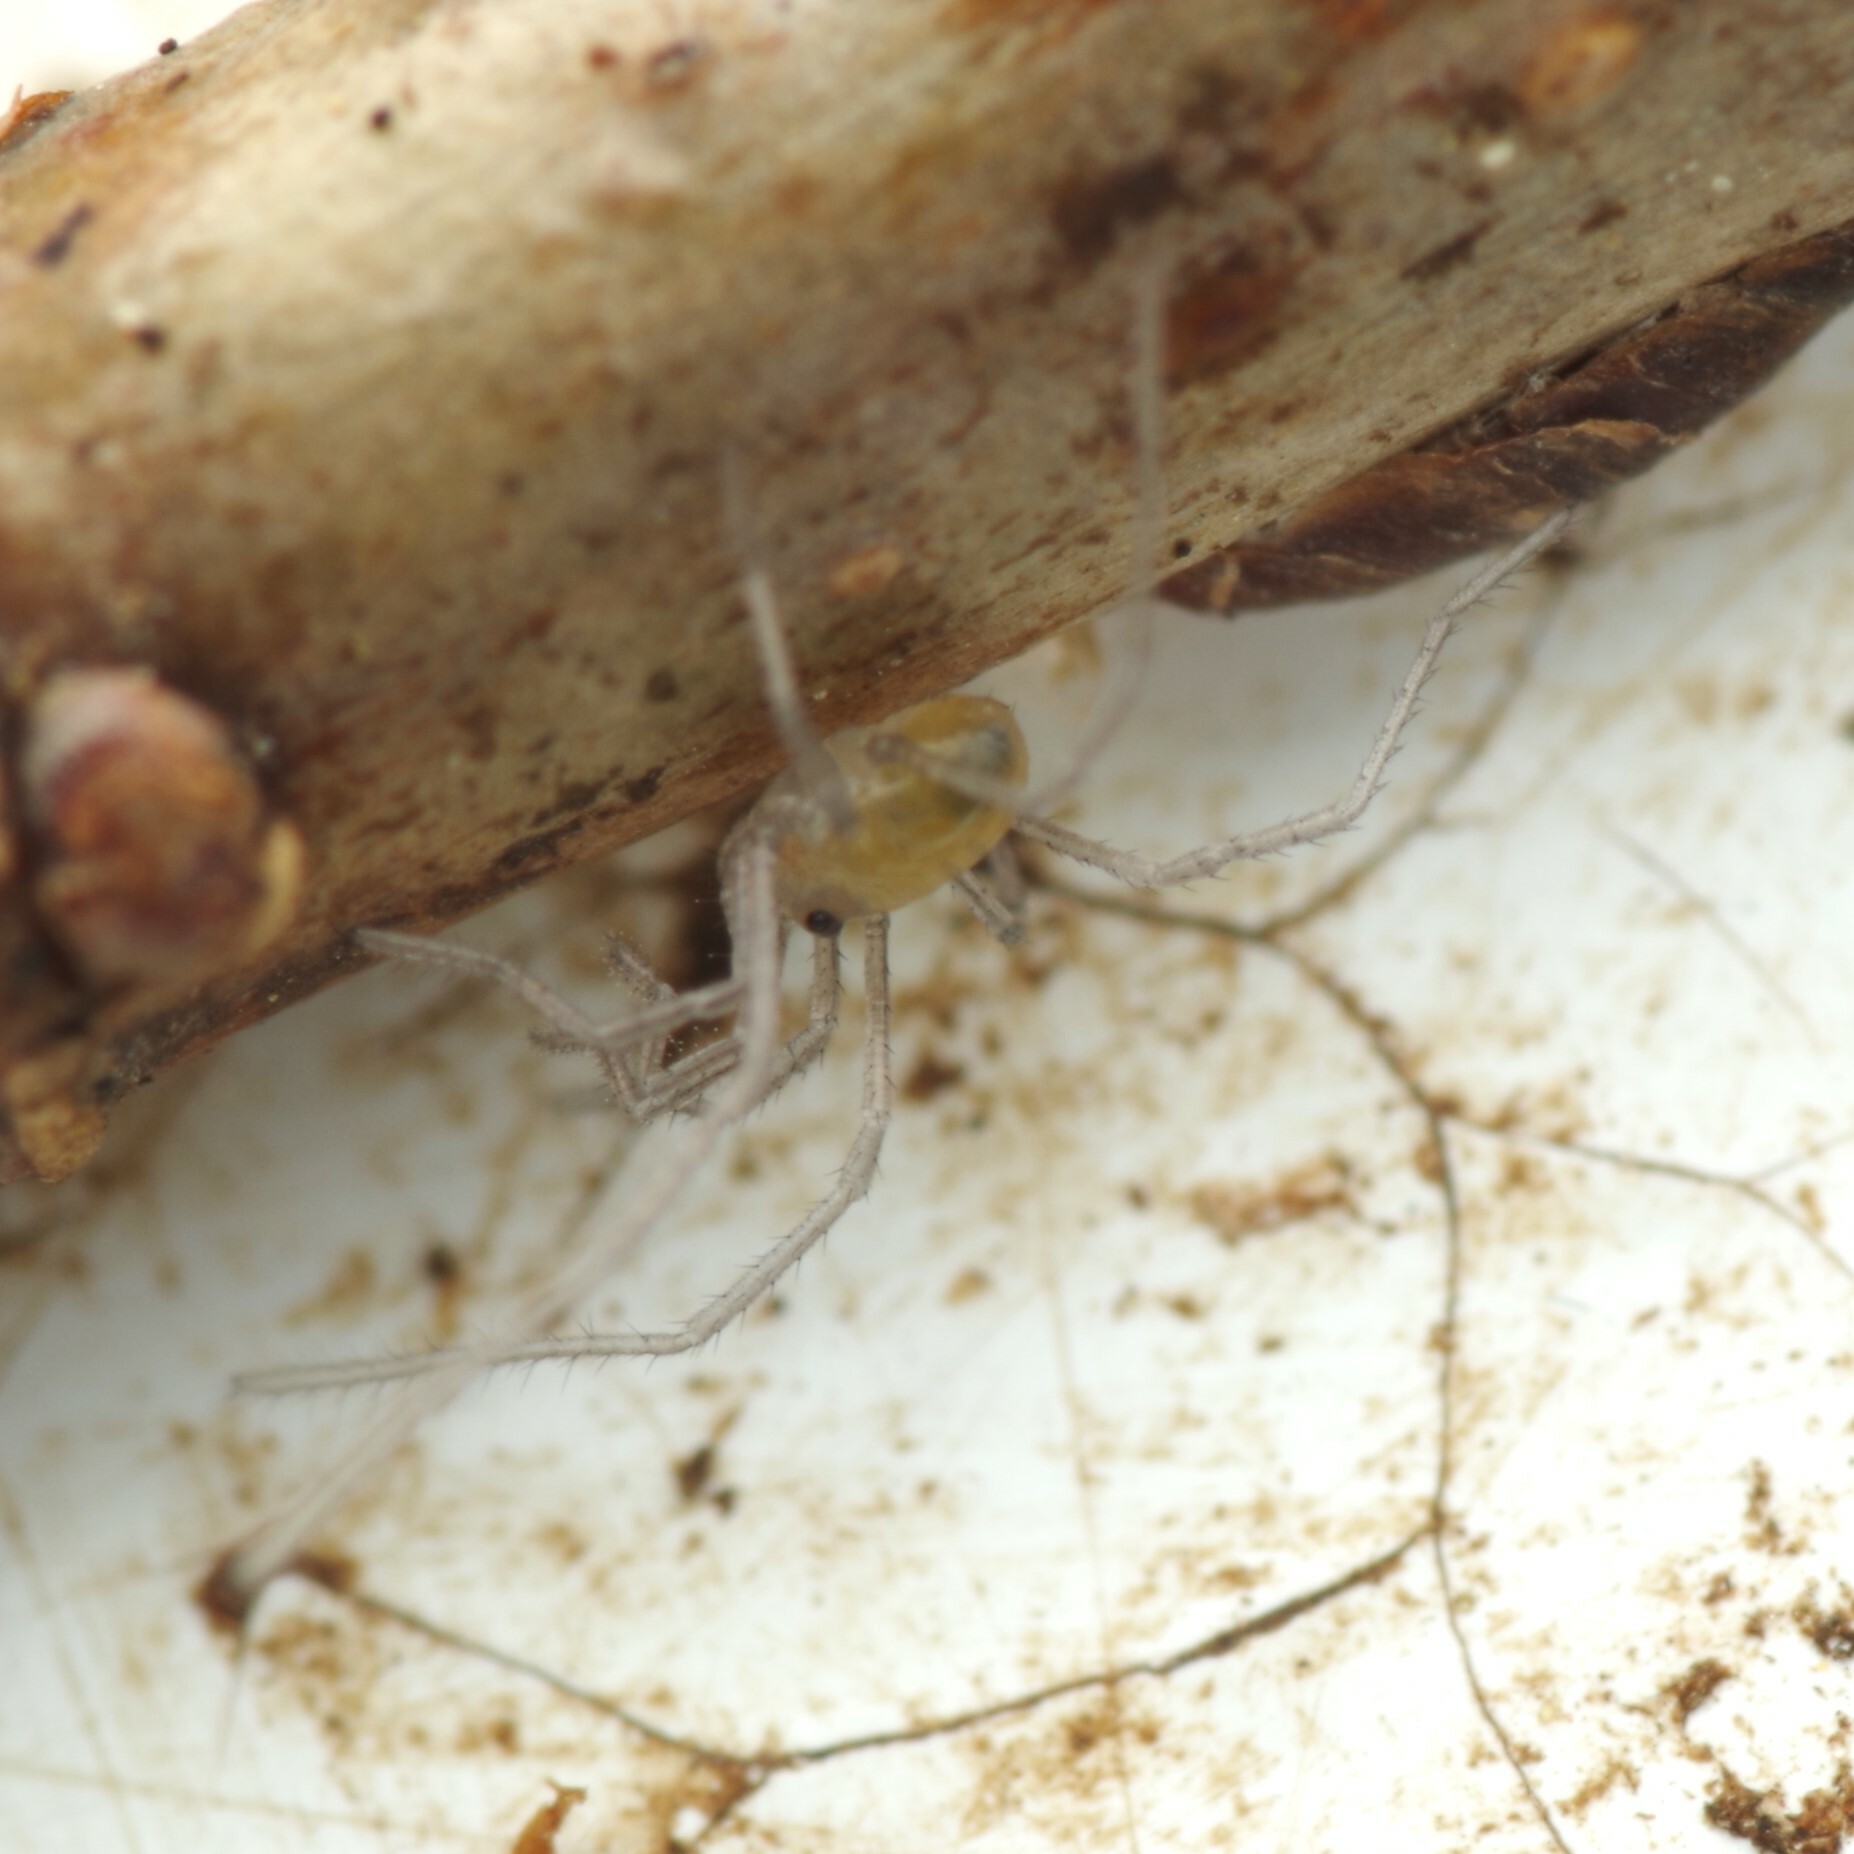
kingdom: Animalia
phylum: Arthropoda
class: Arachnida
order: Opiliones
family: Nemastomatidae
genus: Mitostoma
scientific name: Mitostoma chrysomelas
